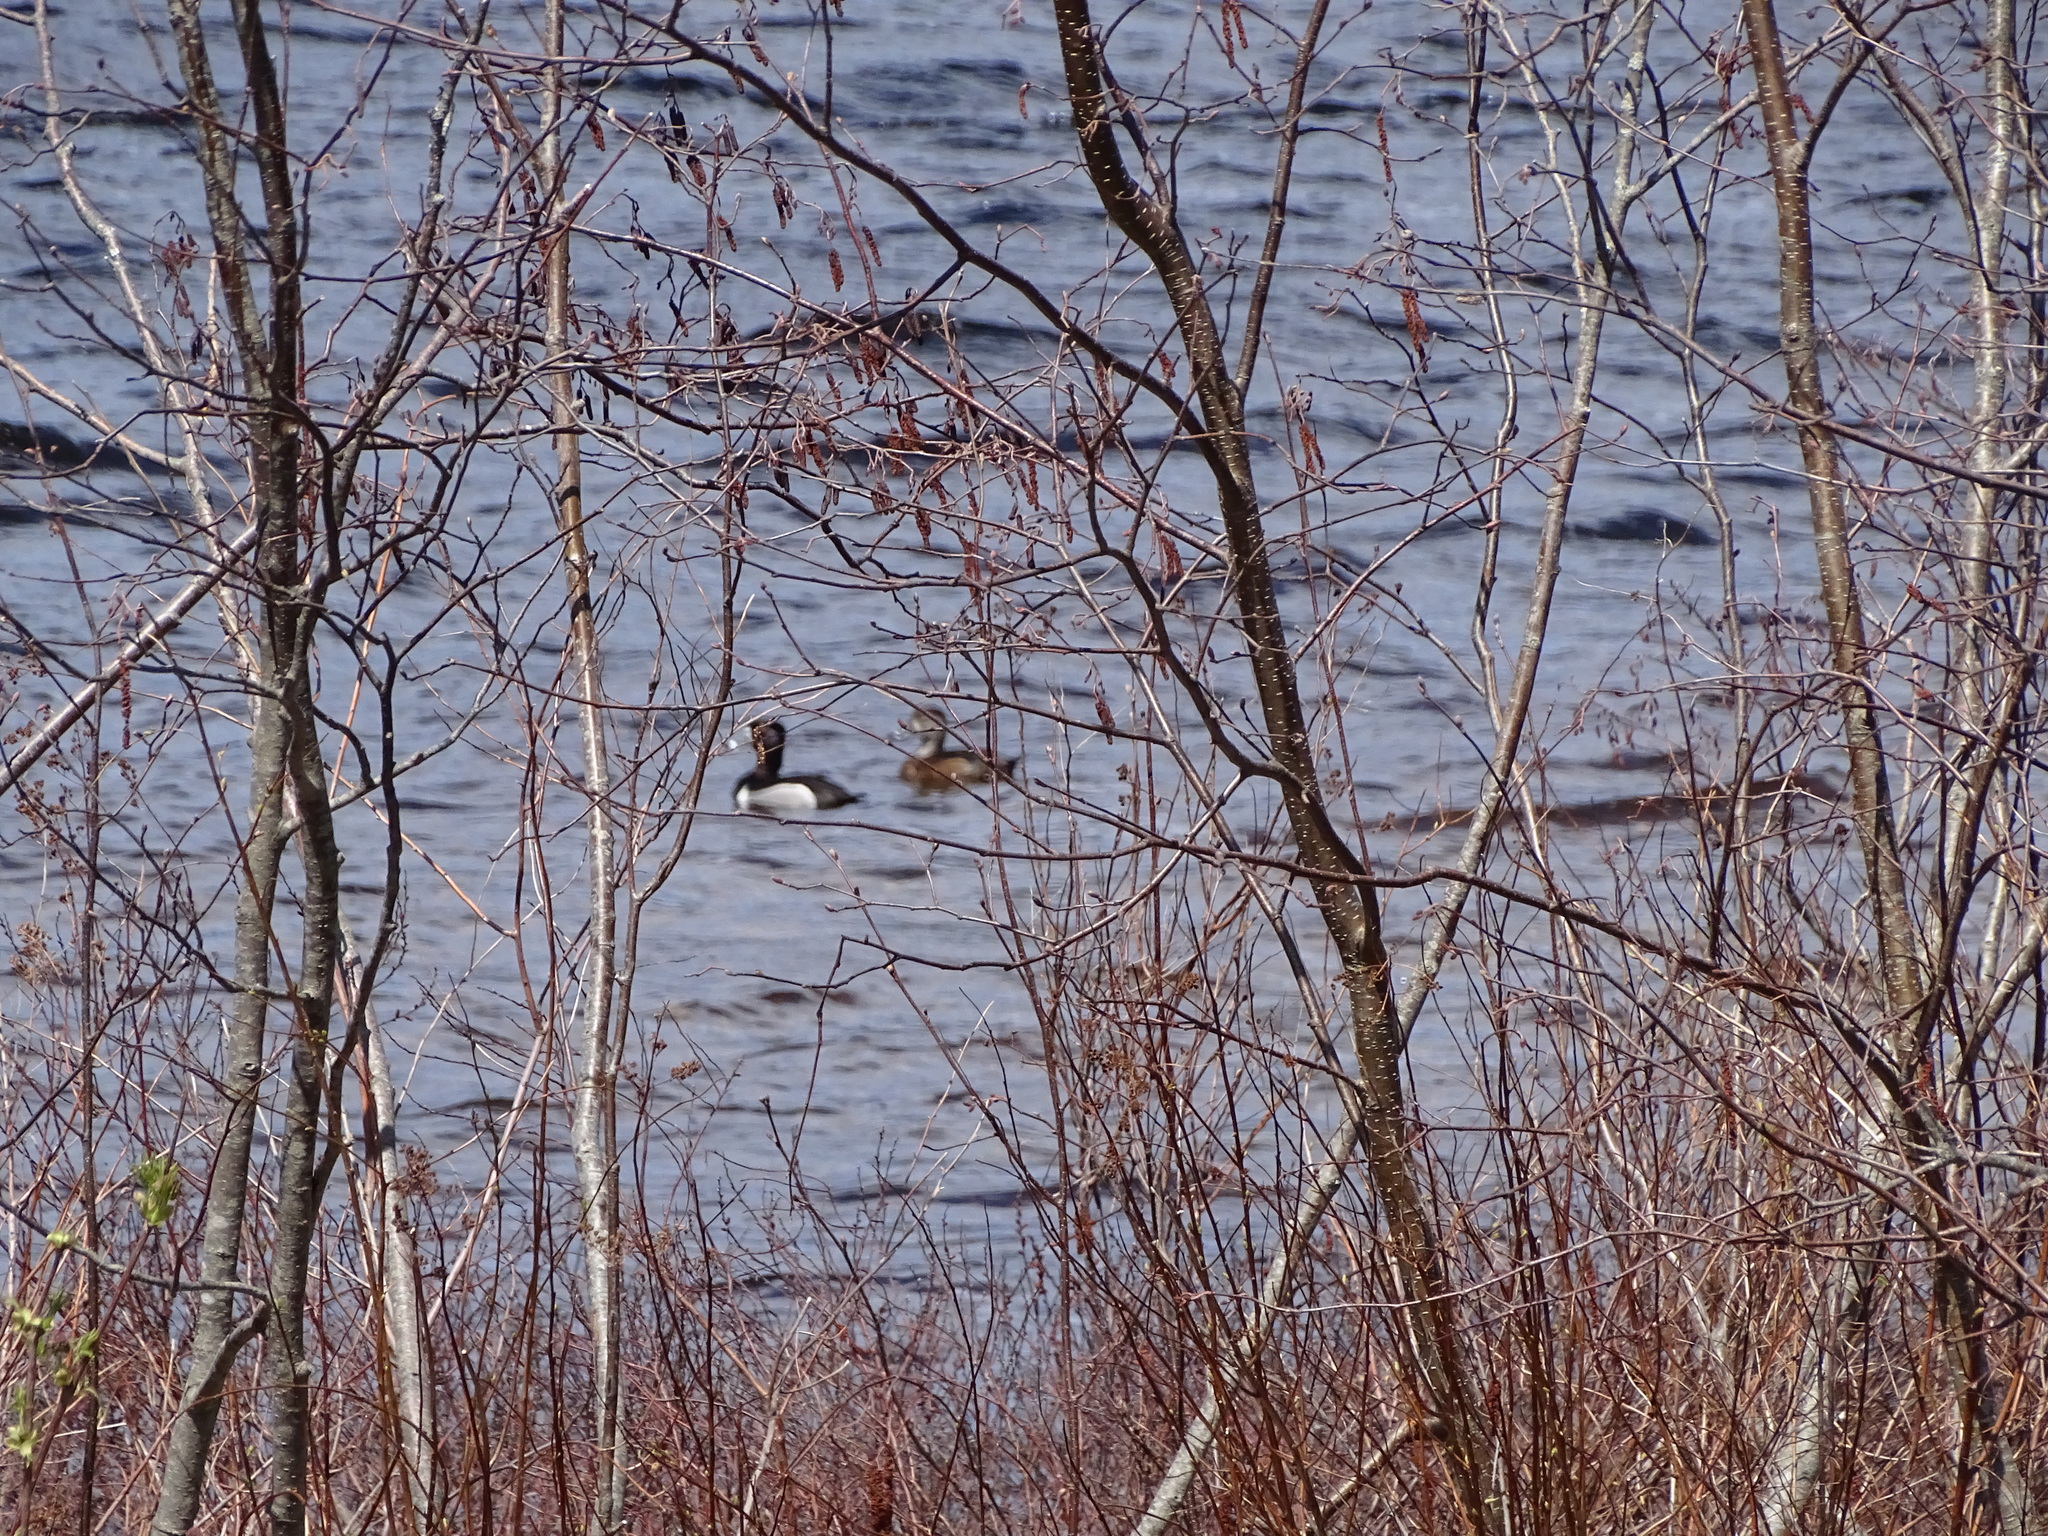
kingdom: Plantae
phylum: Tracheophyta
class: Magnoliopsida
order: Fagales
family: Betulaceae
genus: Alnus
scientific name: Alnus incana
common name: Grey alder
